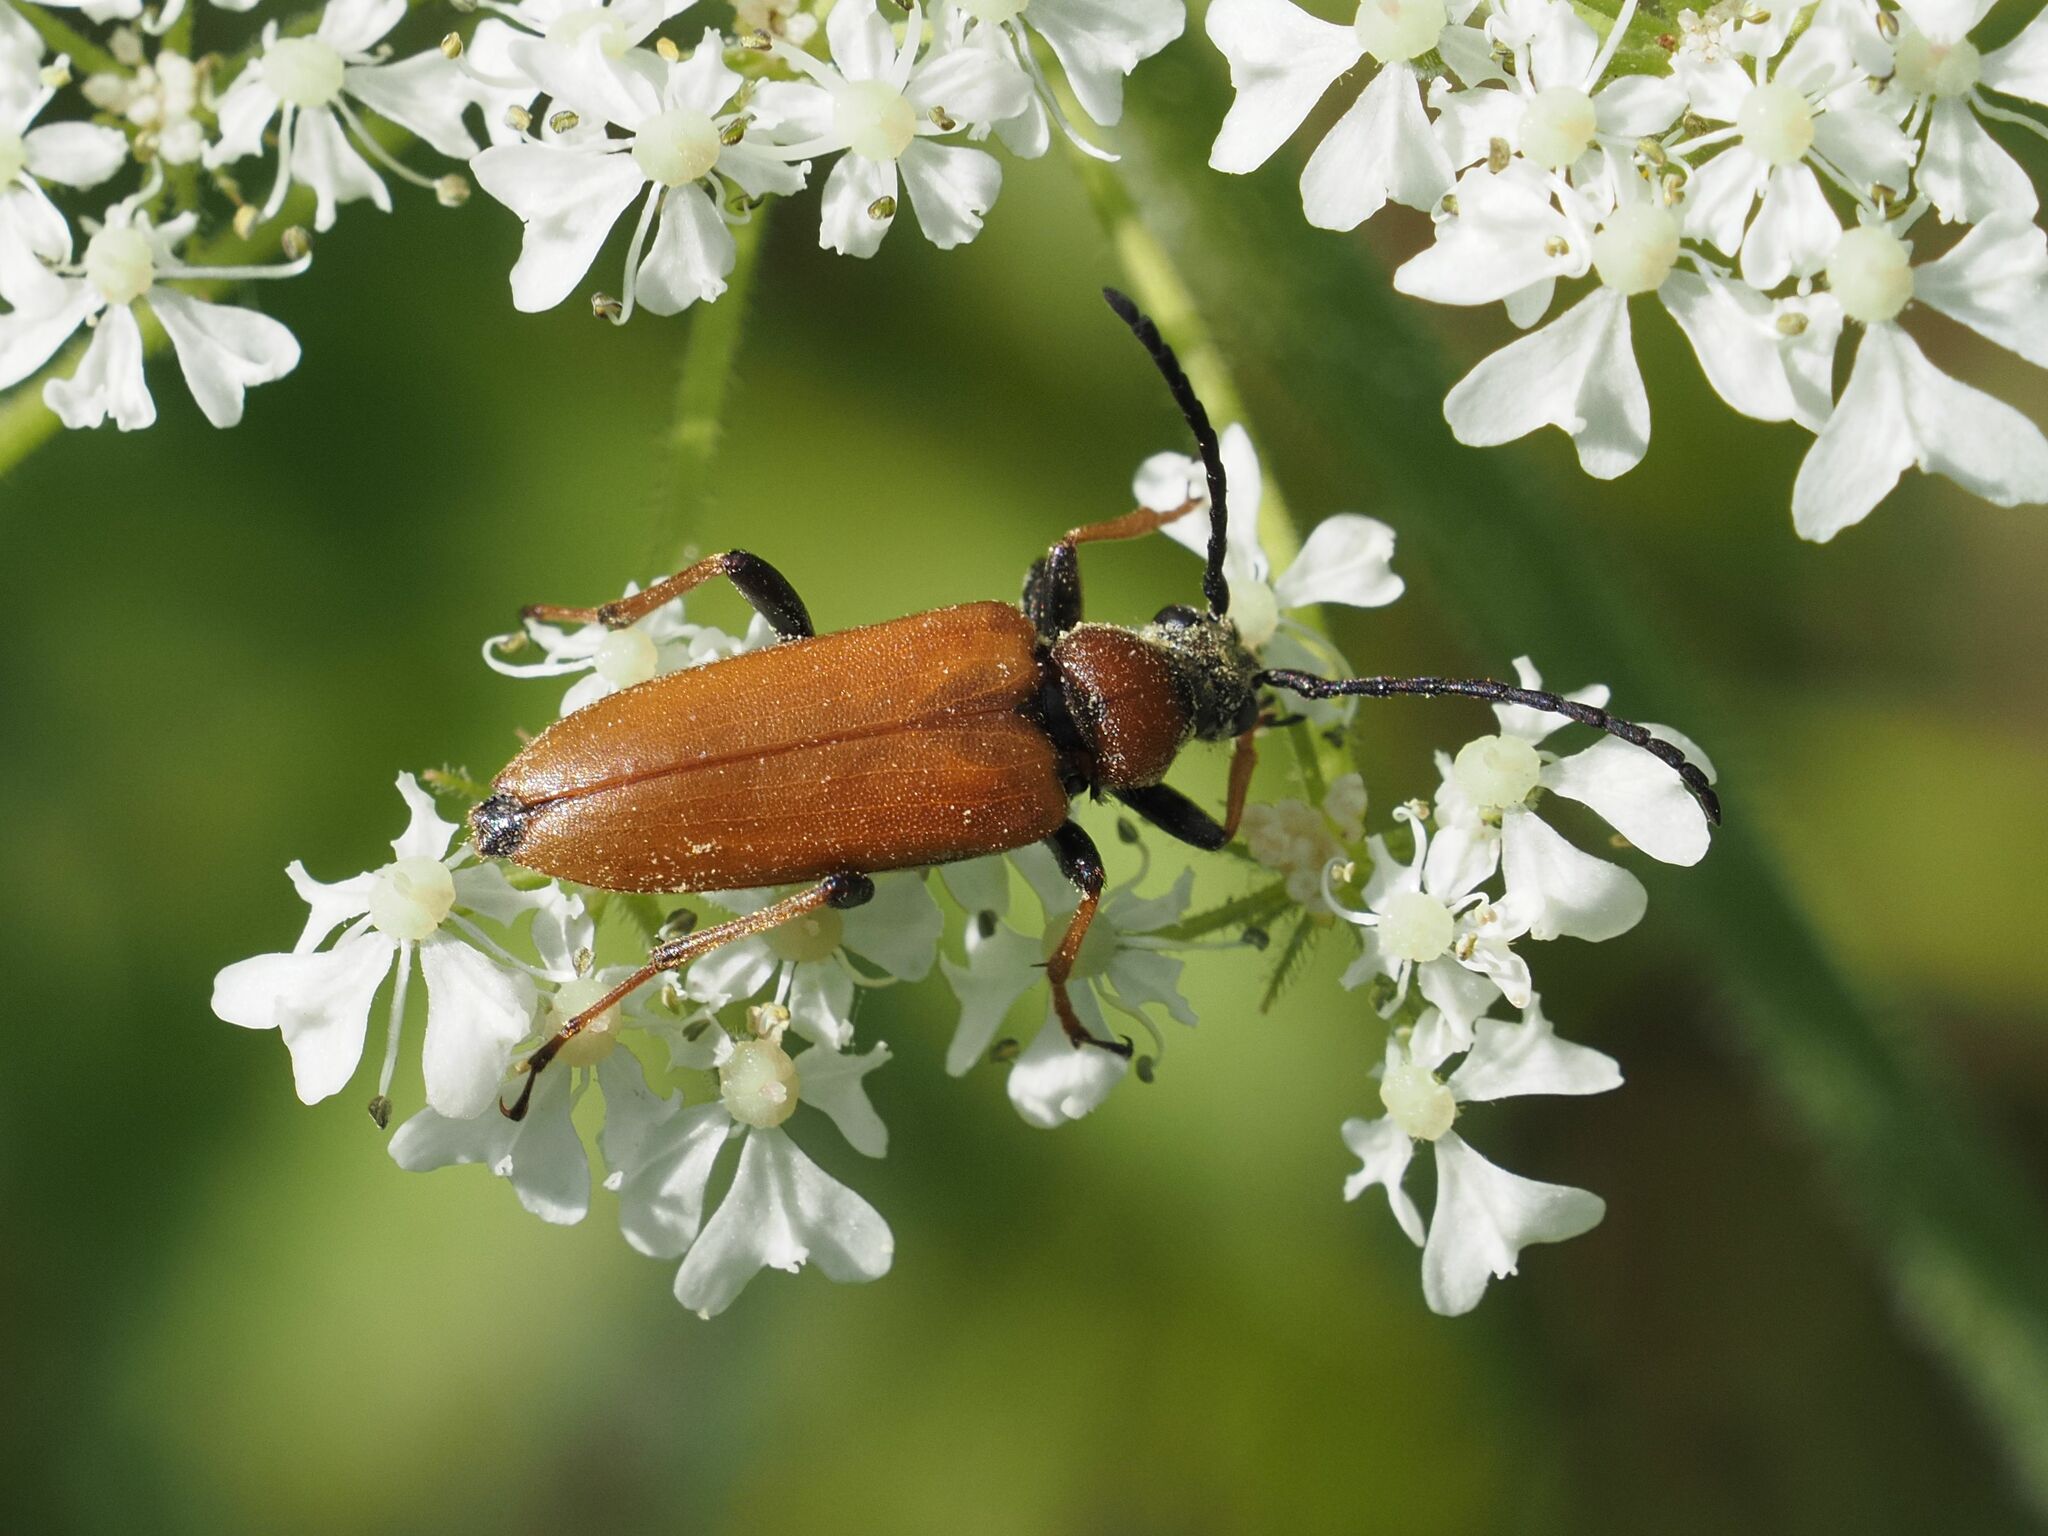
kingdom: Animalia
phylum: Arthropoda
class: Insecta
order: Coleoptera
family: Cerambycidae
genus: Stictoleptura
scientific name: Stictoleptura rubra
